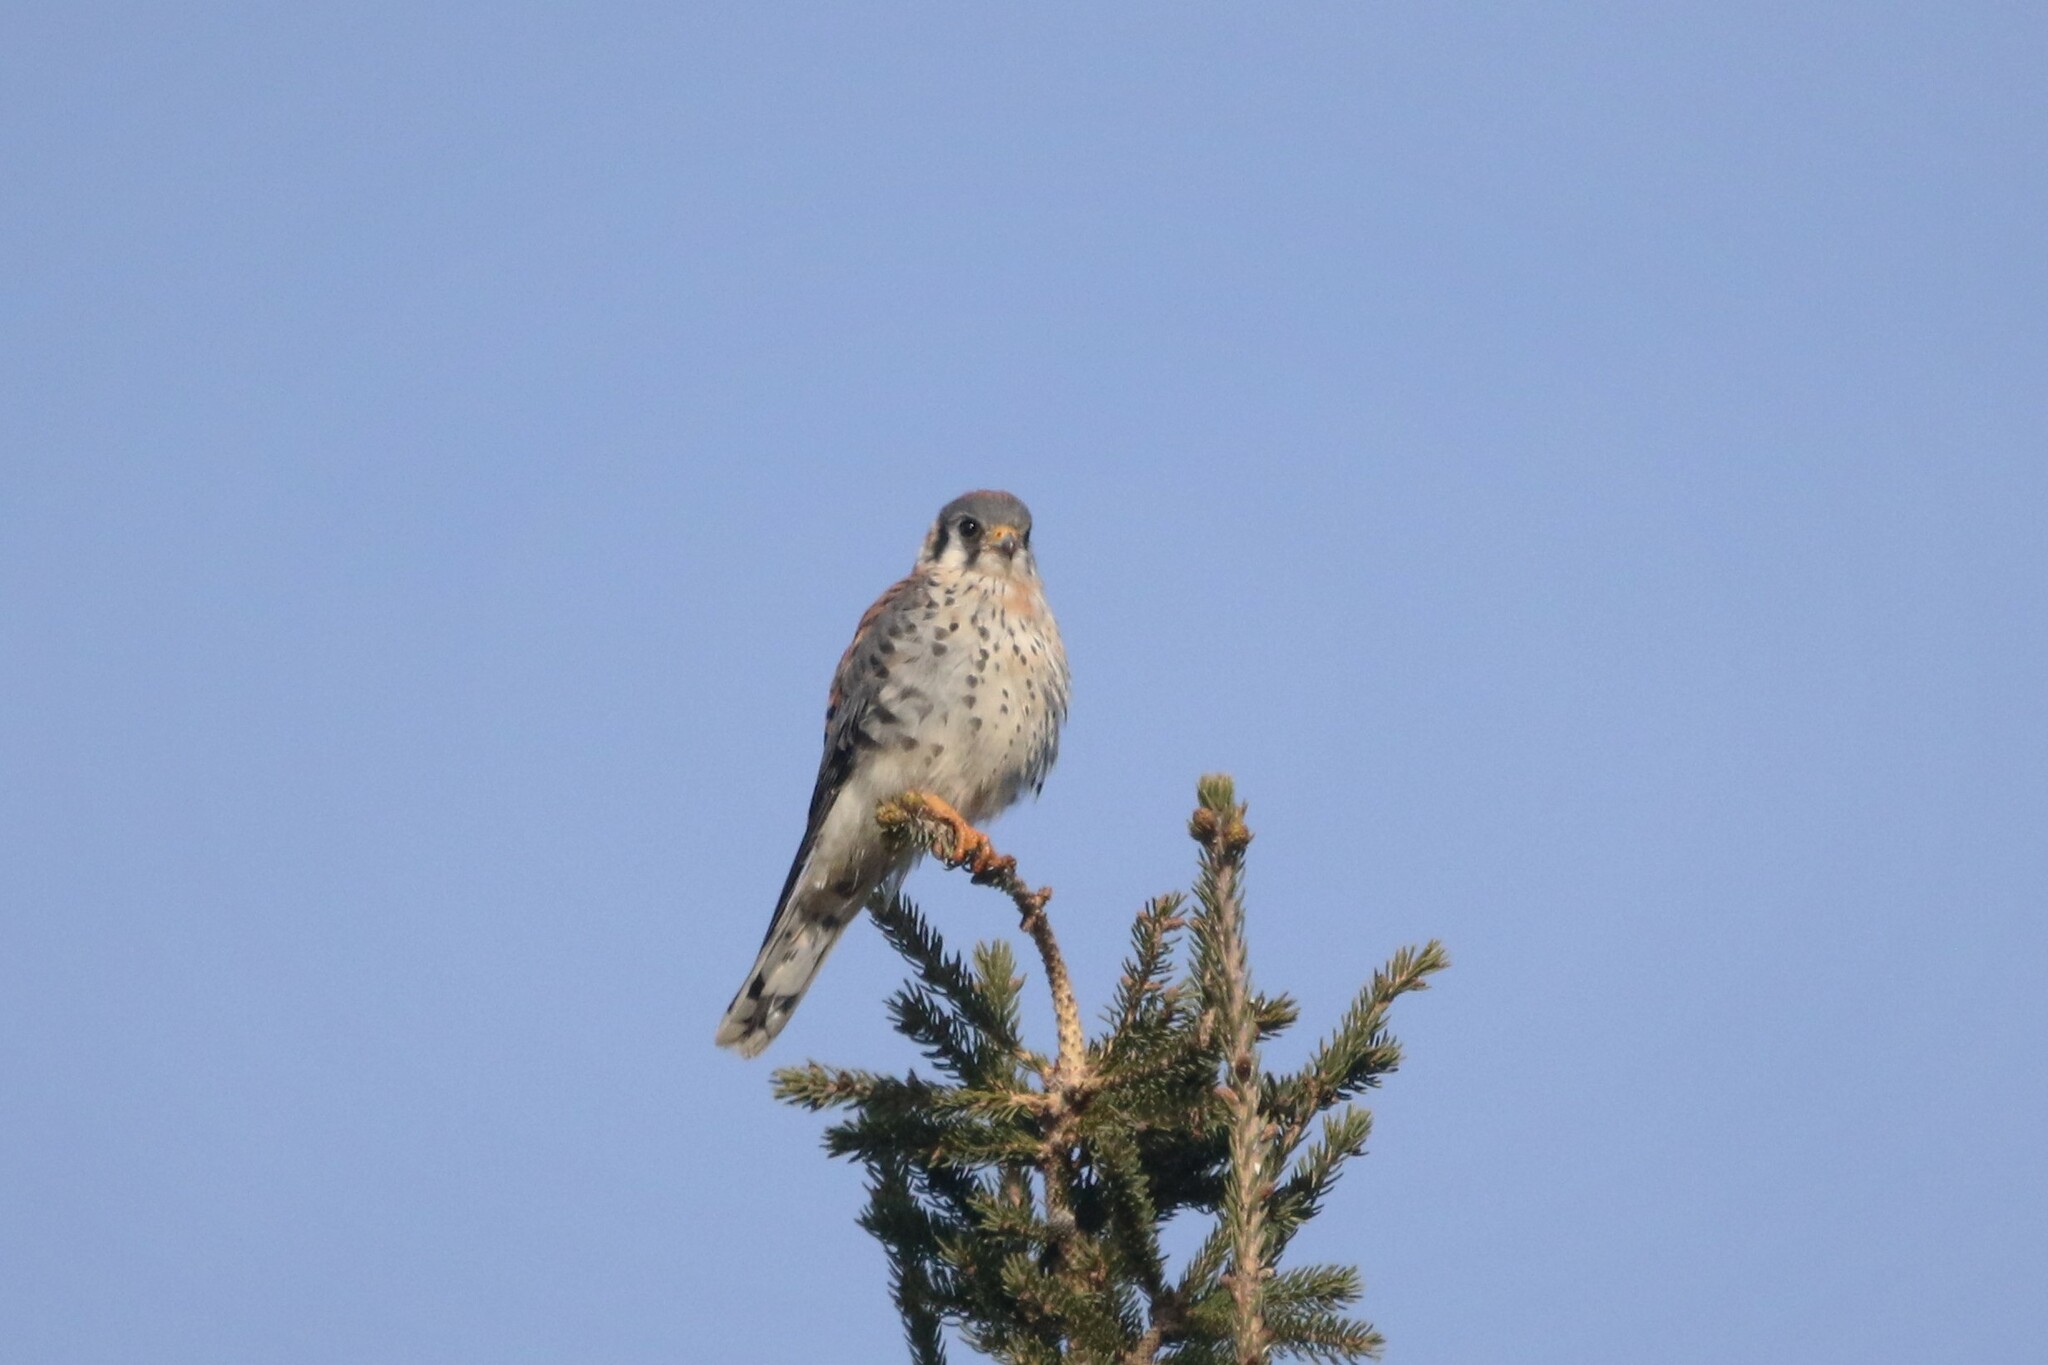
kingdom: Animalia
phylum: Chordata
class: Aves
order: Falconiformes
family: Falconidae
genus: Falco
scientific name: Falco sparverius
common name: American kestrel
